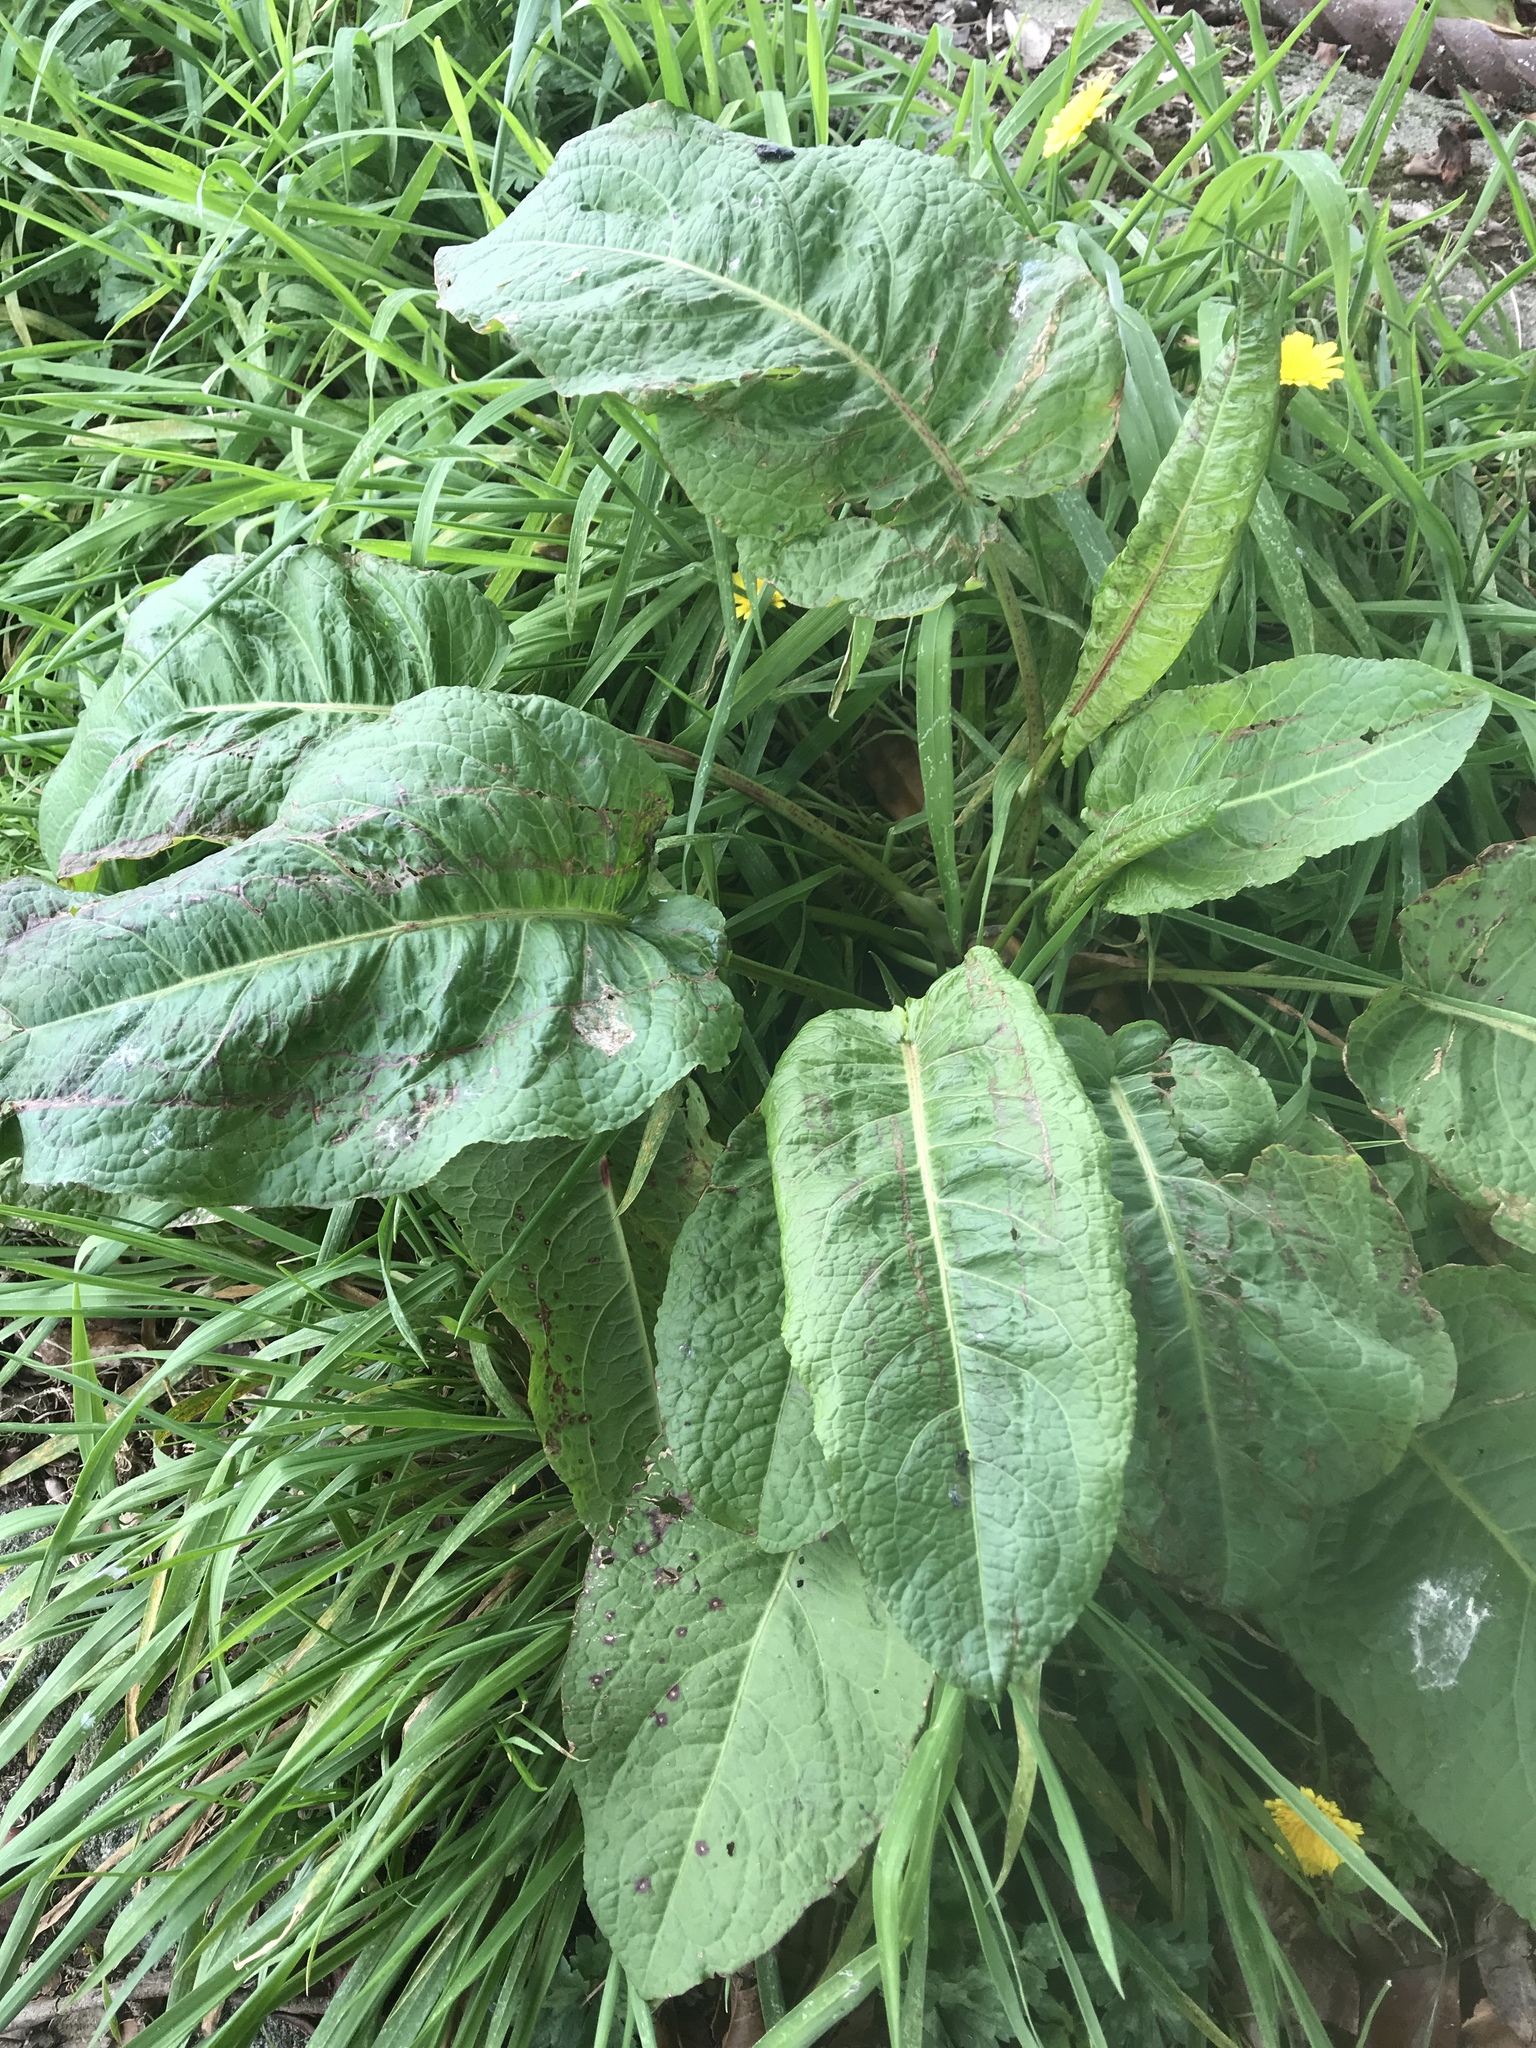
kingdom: Plantae
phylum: Tracheophyta
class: Magnoliopsida
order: Caryophyllales
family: Polygonaceae
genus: Rumex
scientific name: Rumex obtusifolius
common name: Bitter dock
